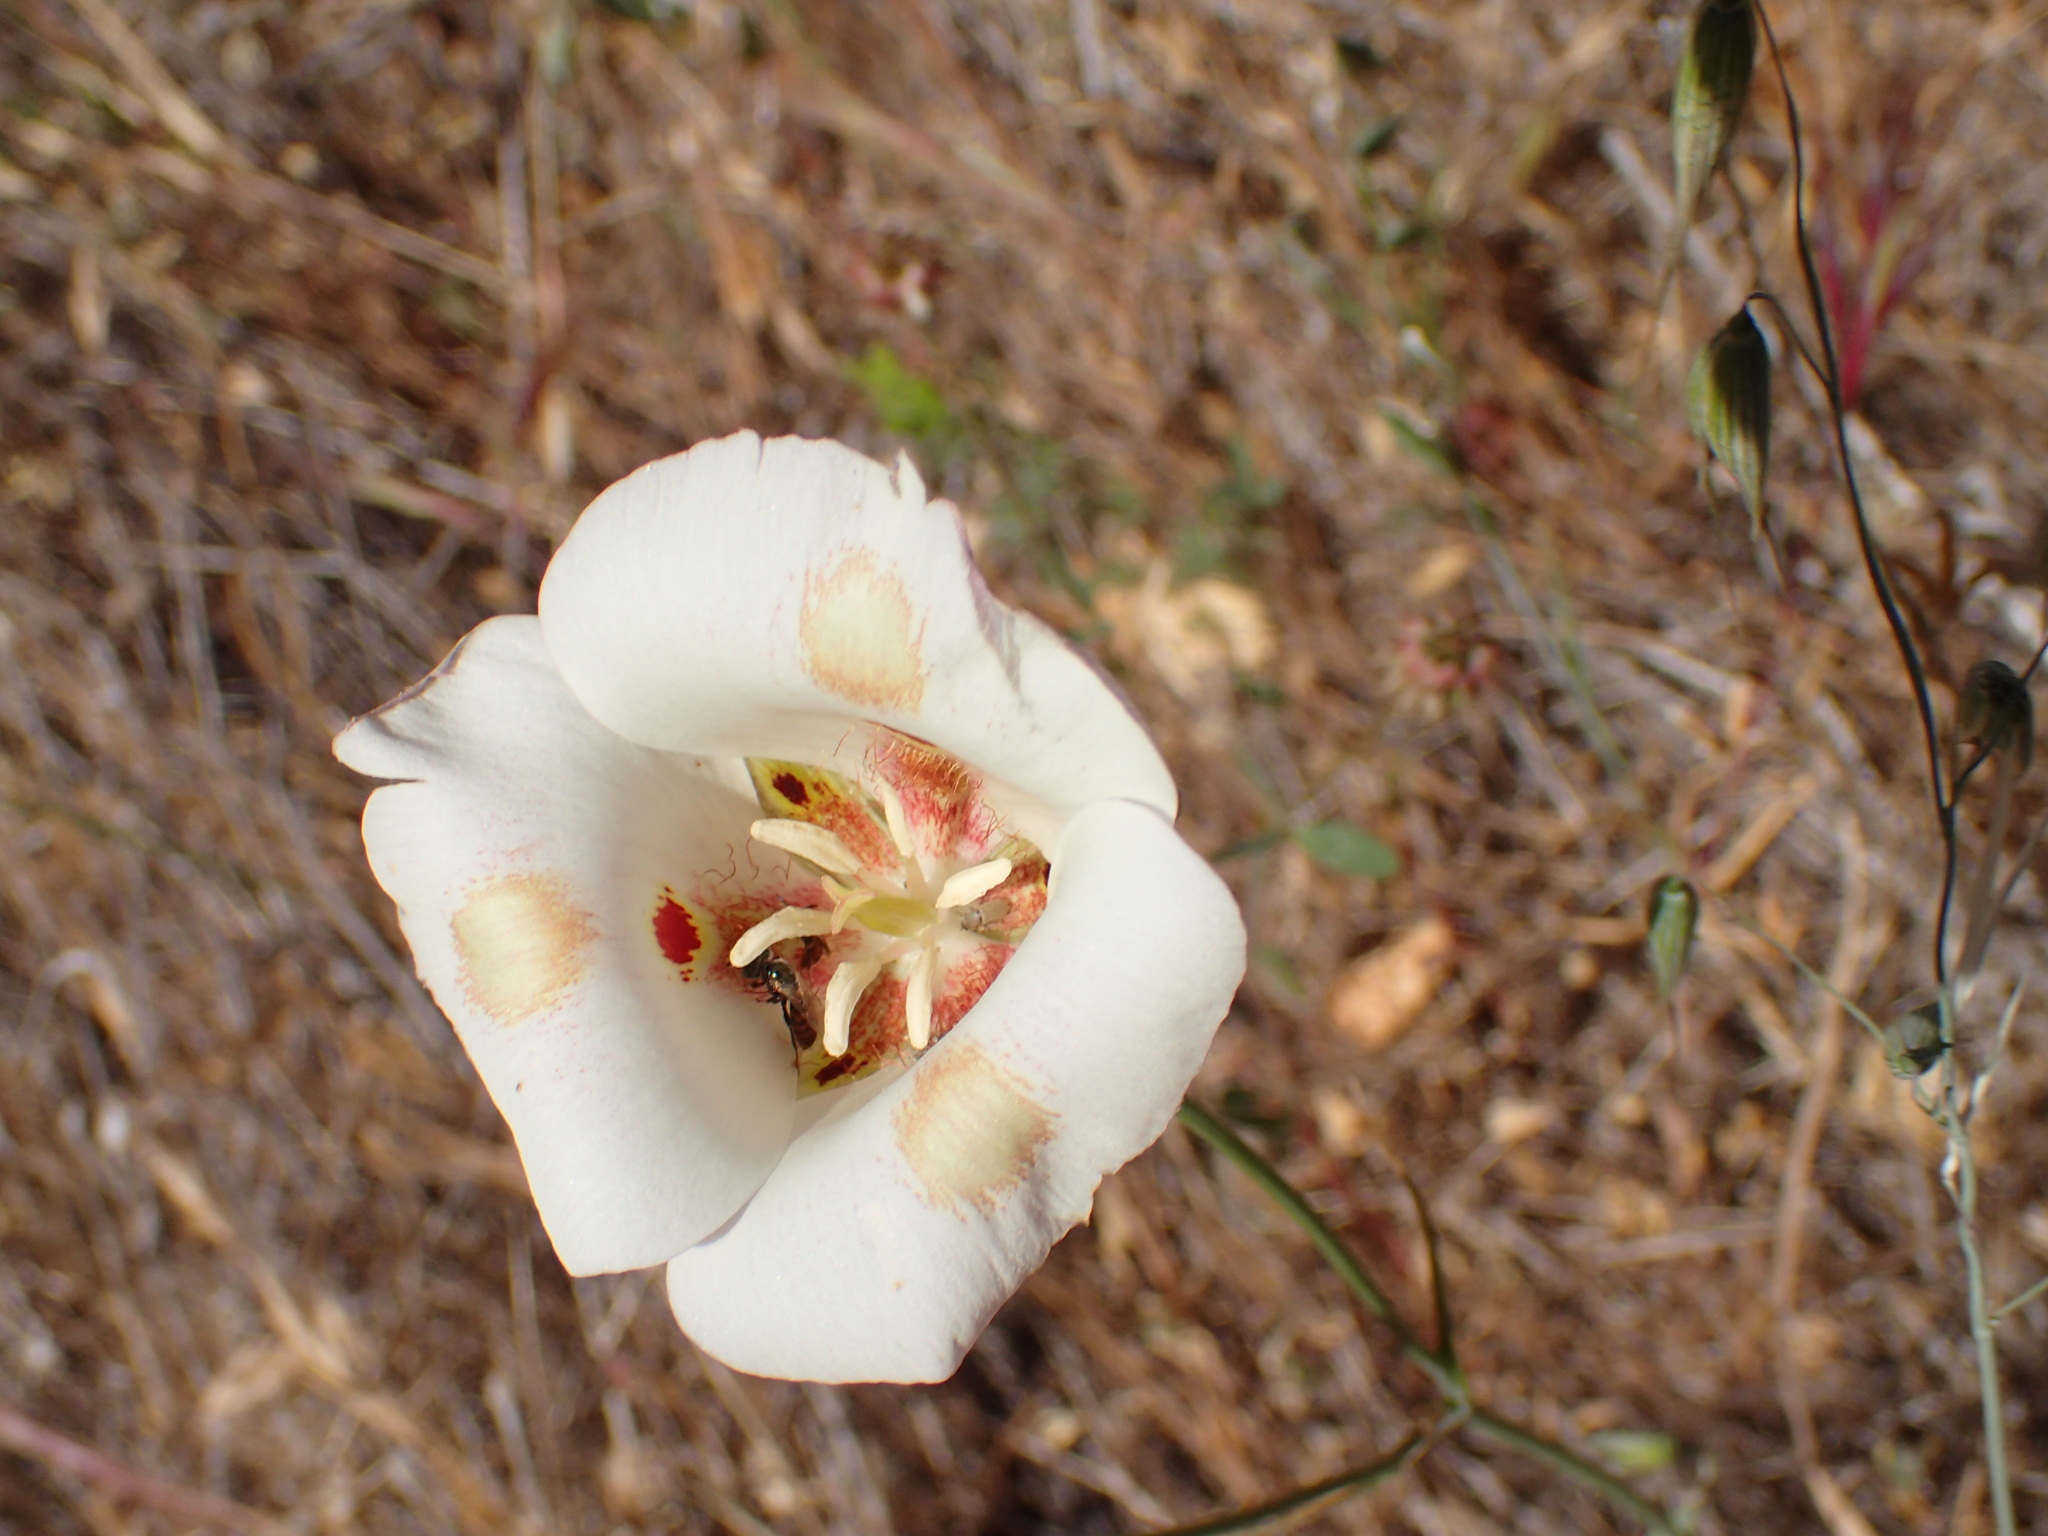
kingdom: Plantae
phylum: Tracheophyta
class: Liliopsida
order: Liliales
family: Liliaceae
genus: Calochortus
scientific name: Calochortus venustus
